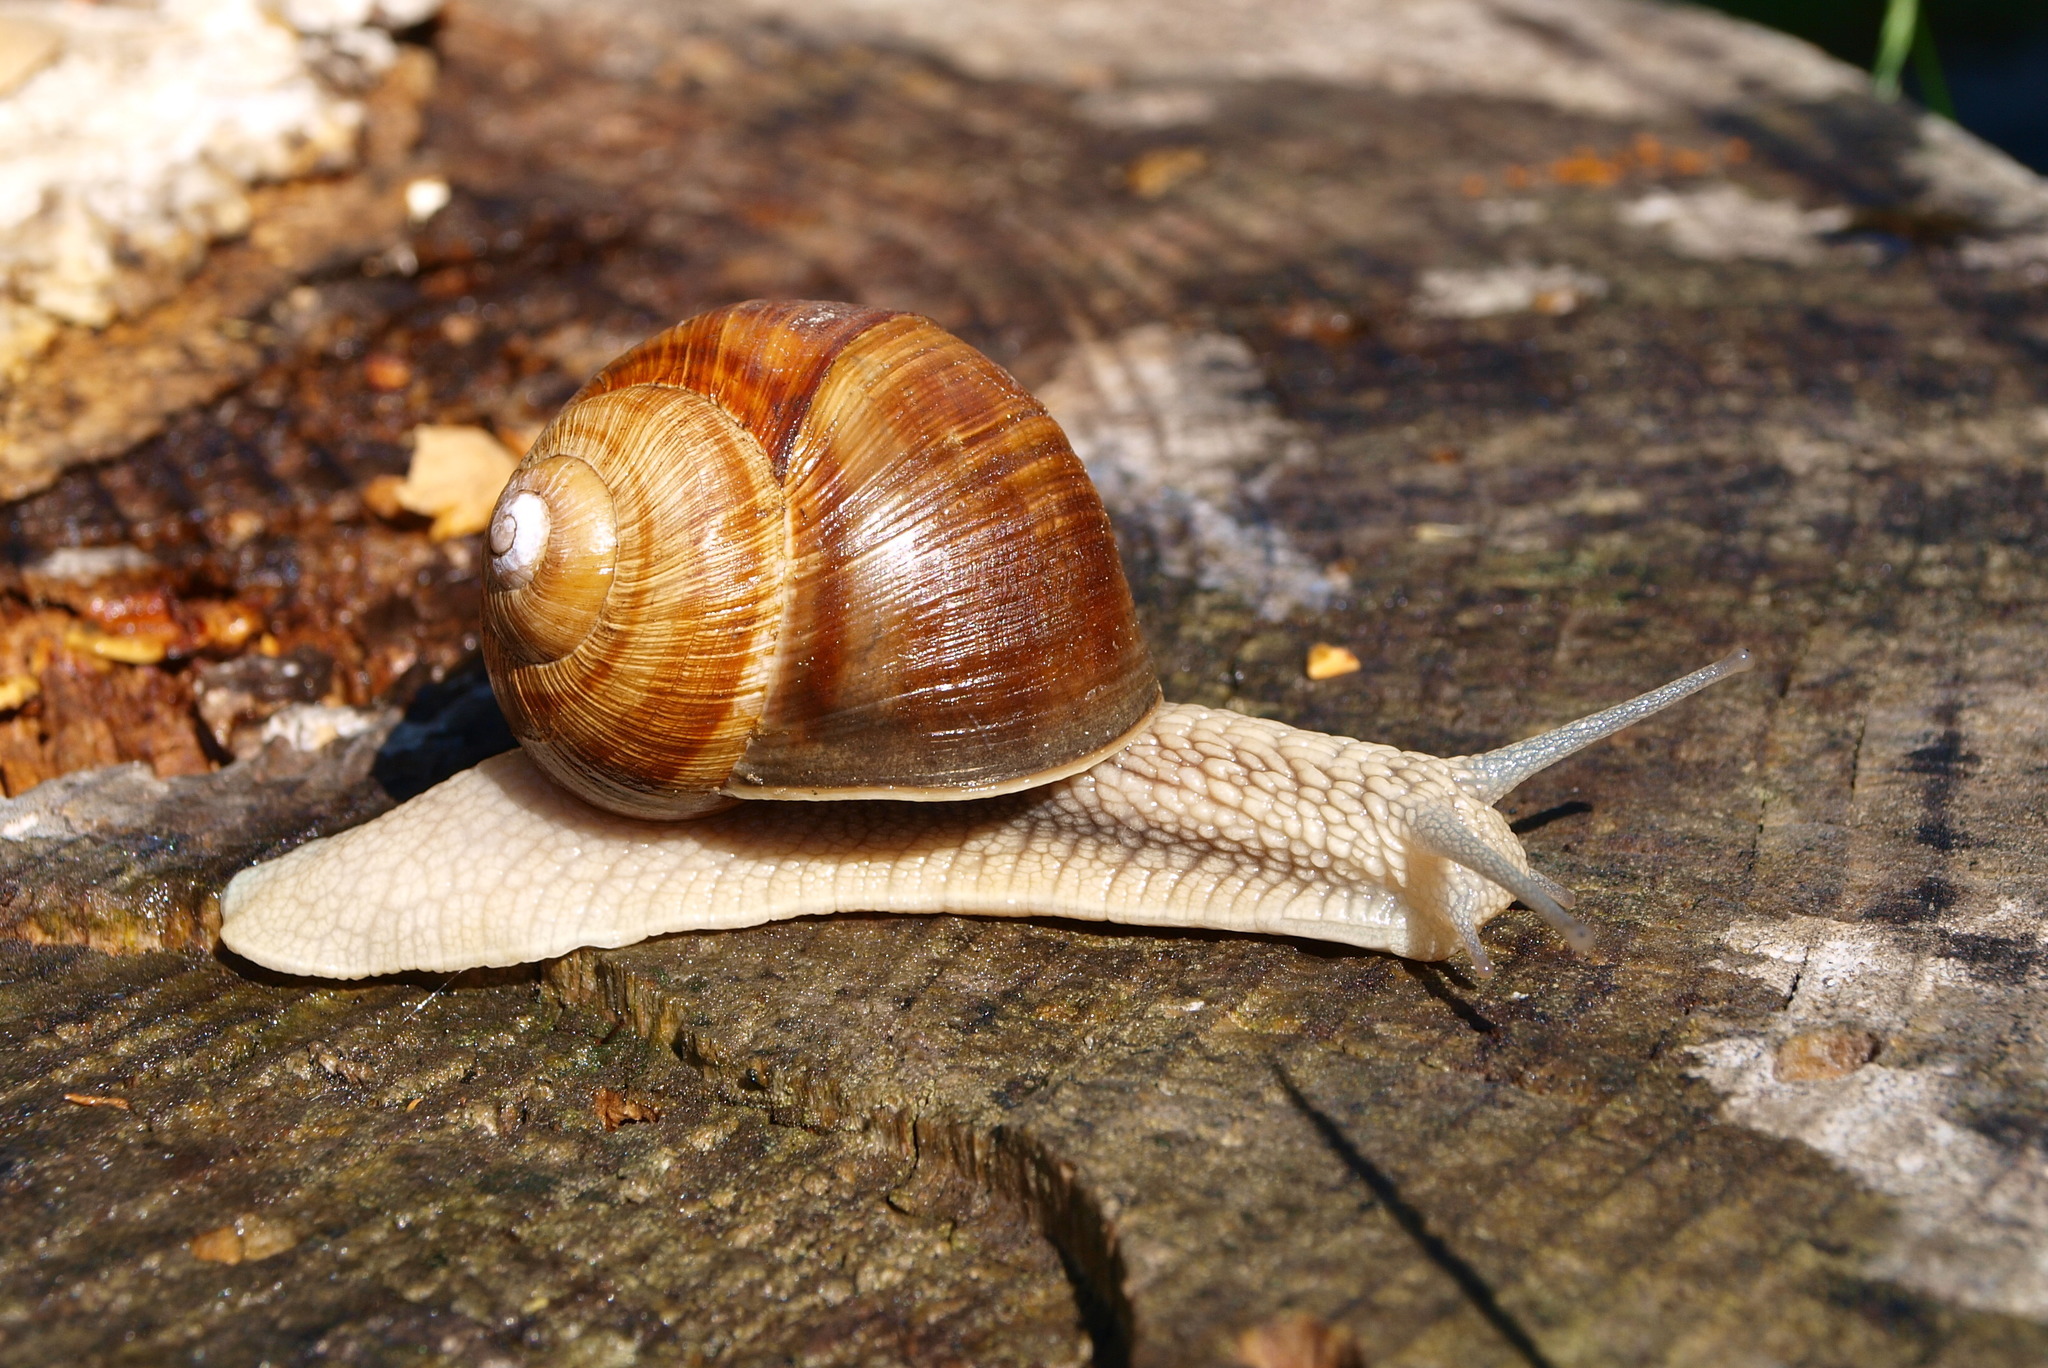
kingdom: Animalia
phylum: Mollusca
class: Gastropoda
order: Stylommatophora
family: Helicidae
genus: Helix
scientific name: Helix pomatia
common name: Roman snail
